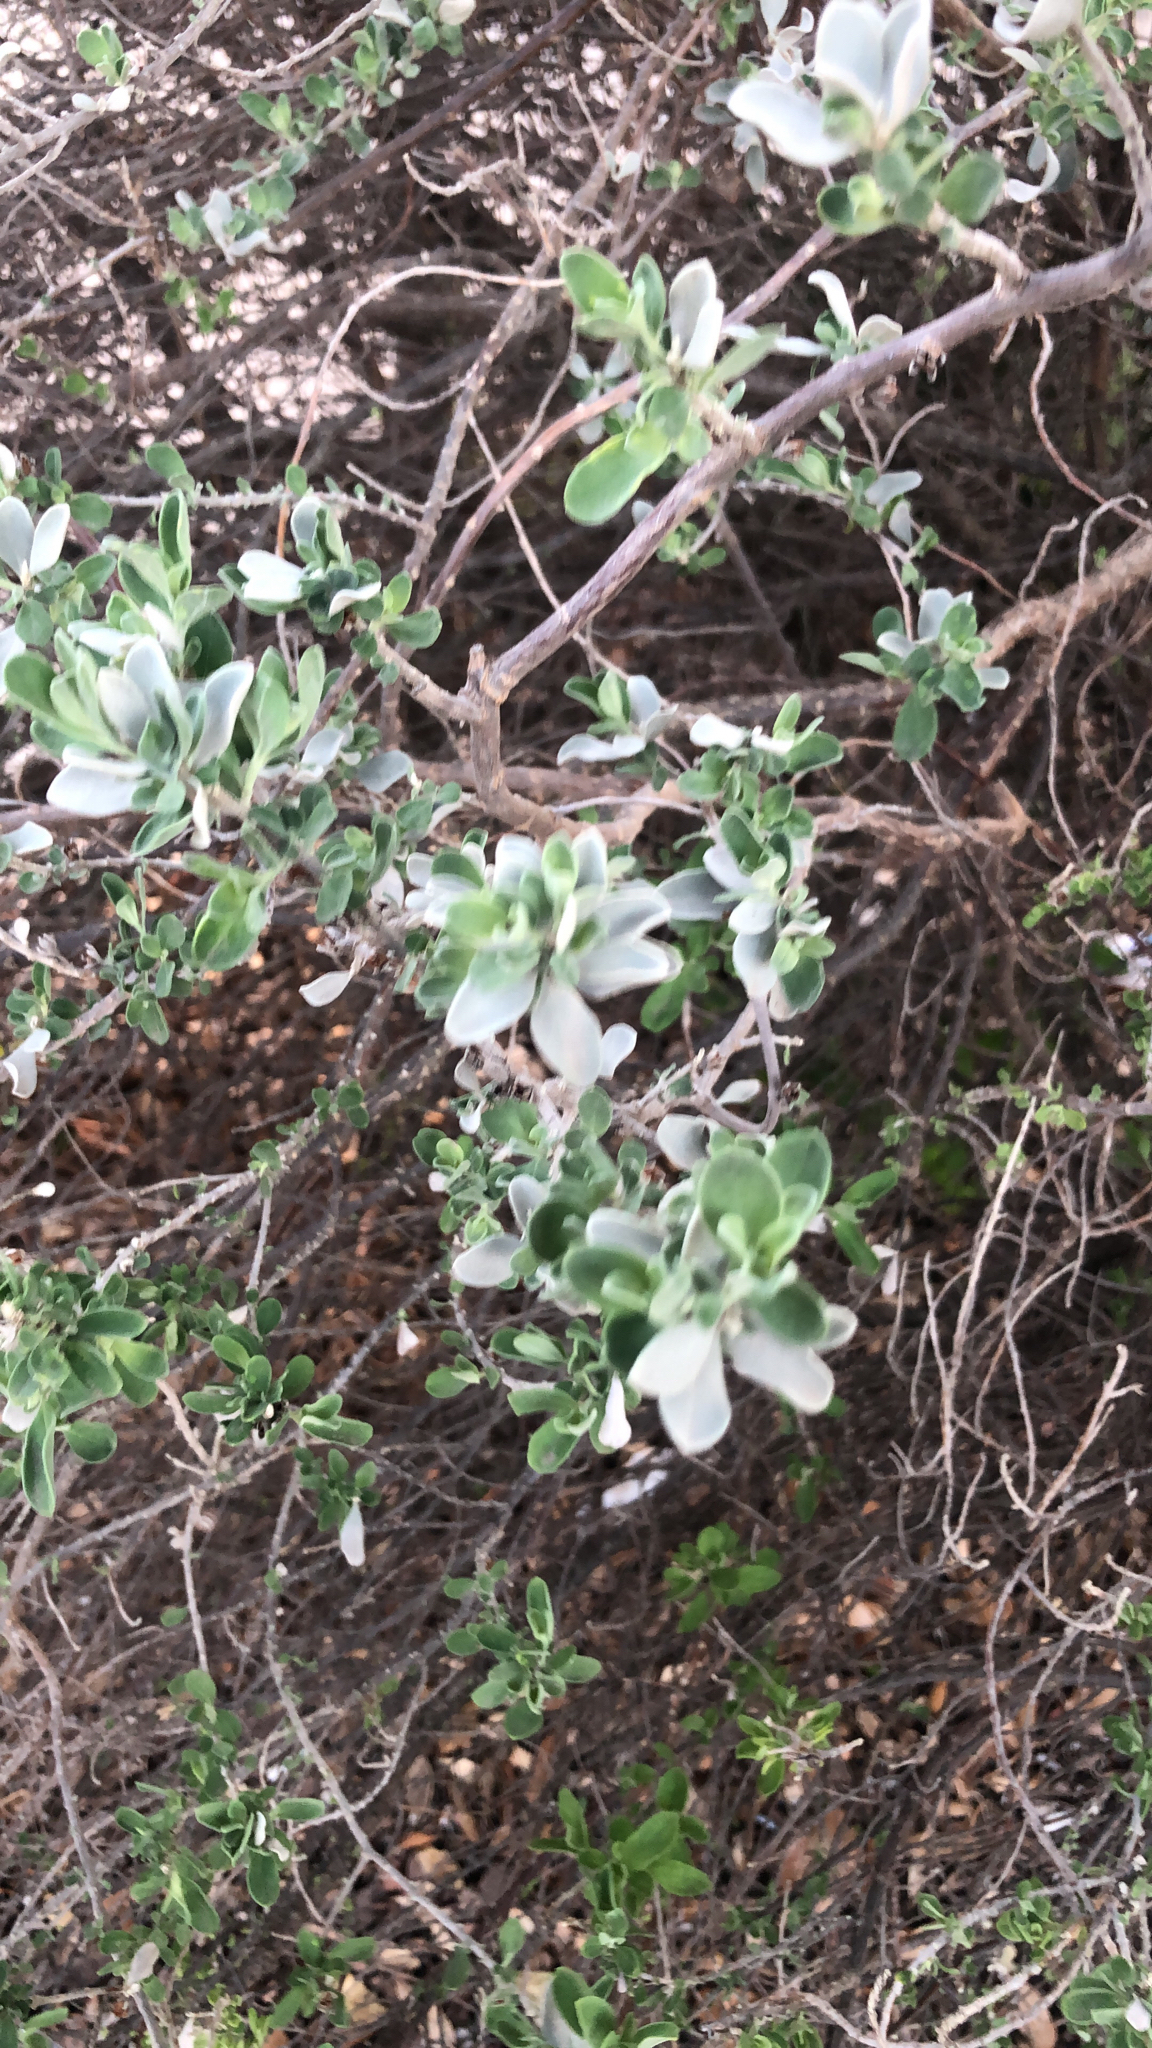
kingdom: Plantae
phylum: Tracheophyta
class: Magnoliopsida
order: Lamiales
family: Scrophulariaceae
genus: Leucophyllum
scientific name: Leucophyllum frutescens
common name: Texas silverleaf
